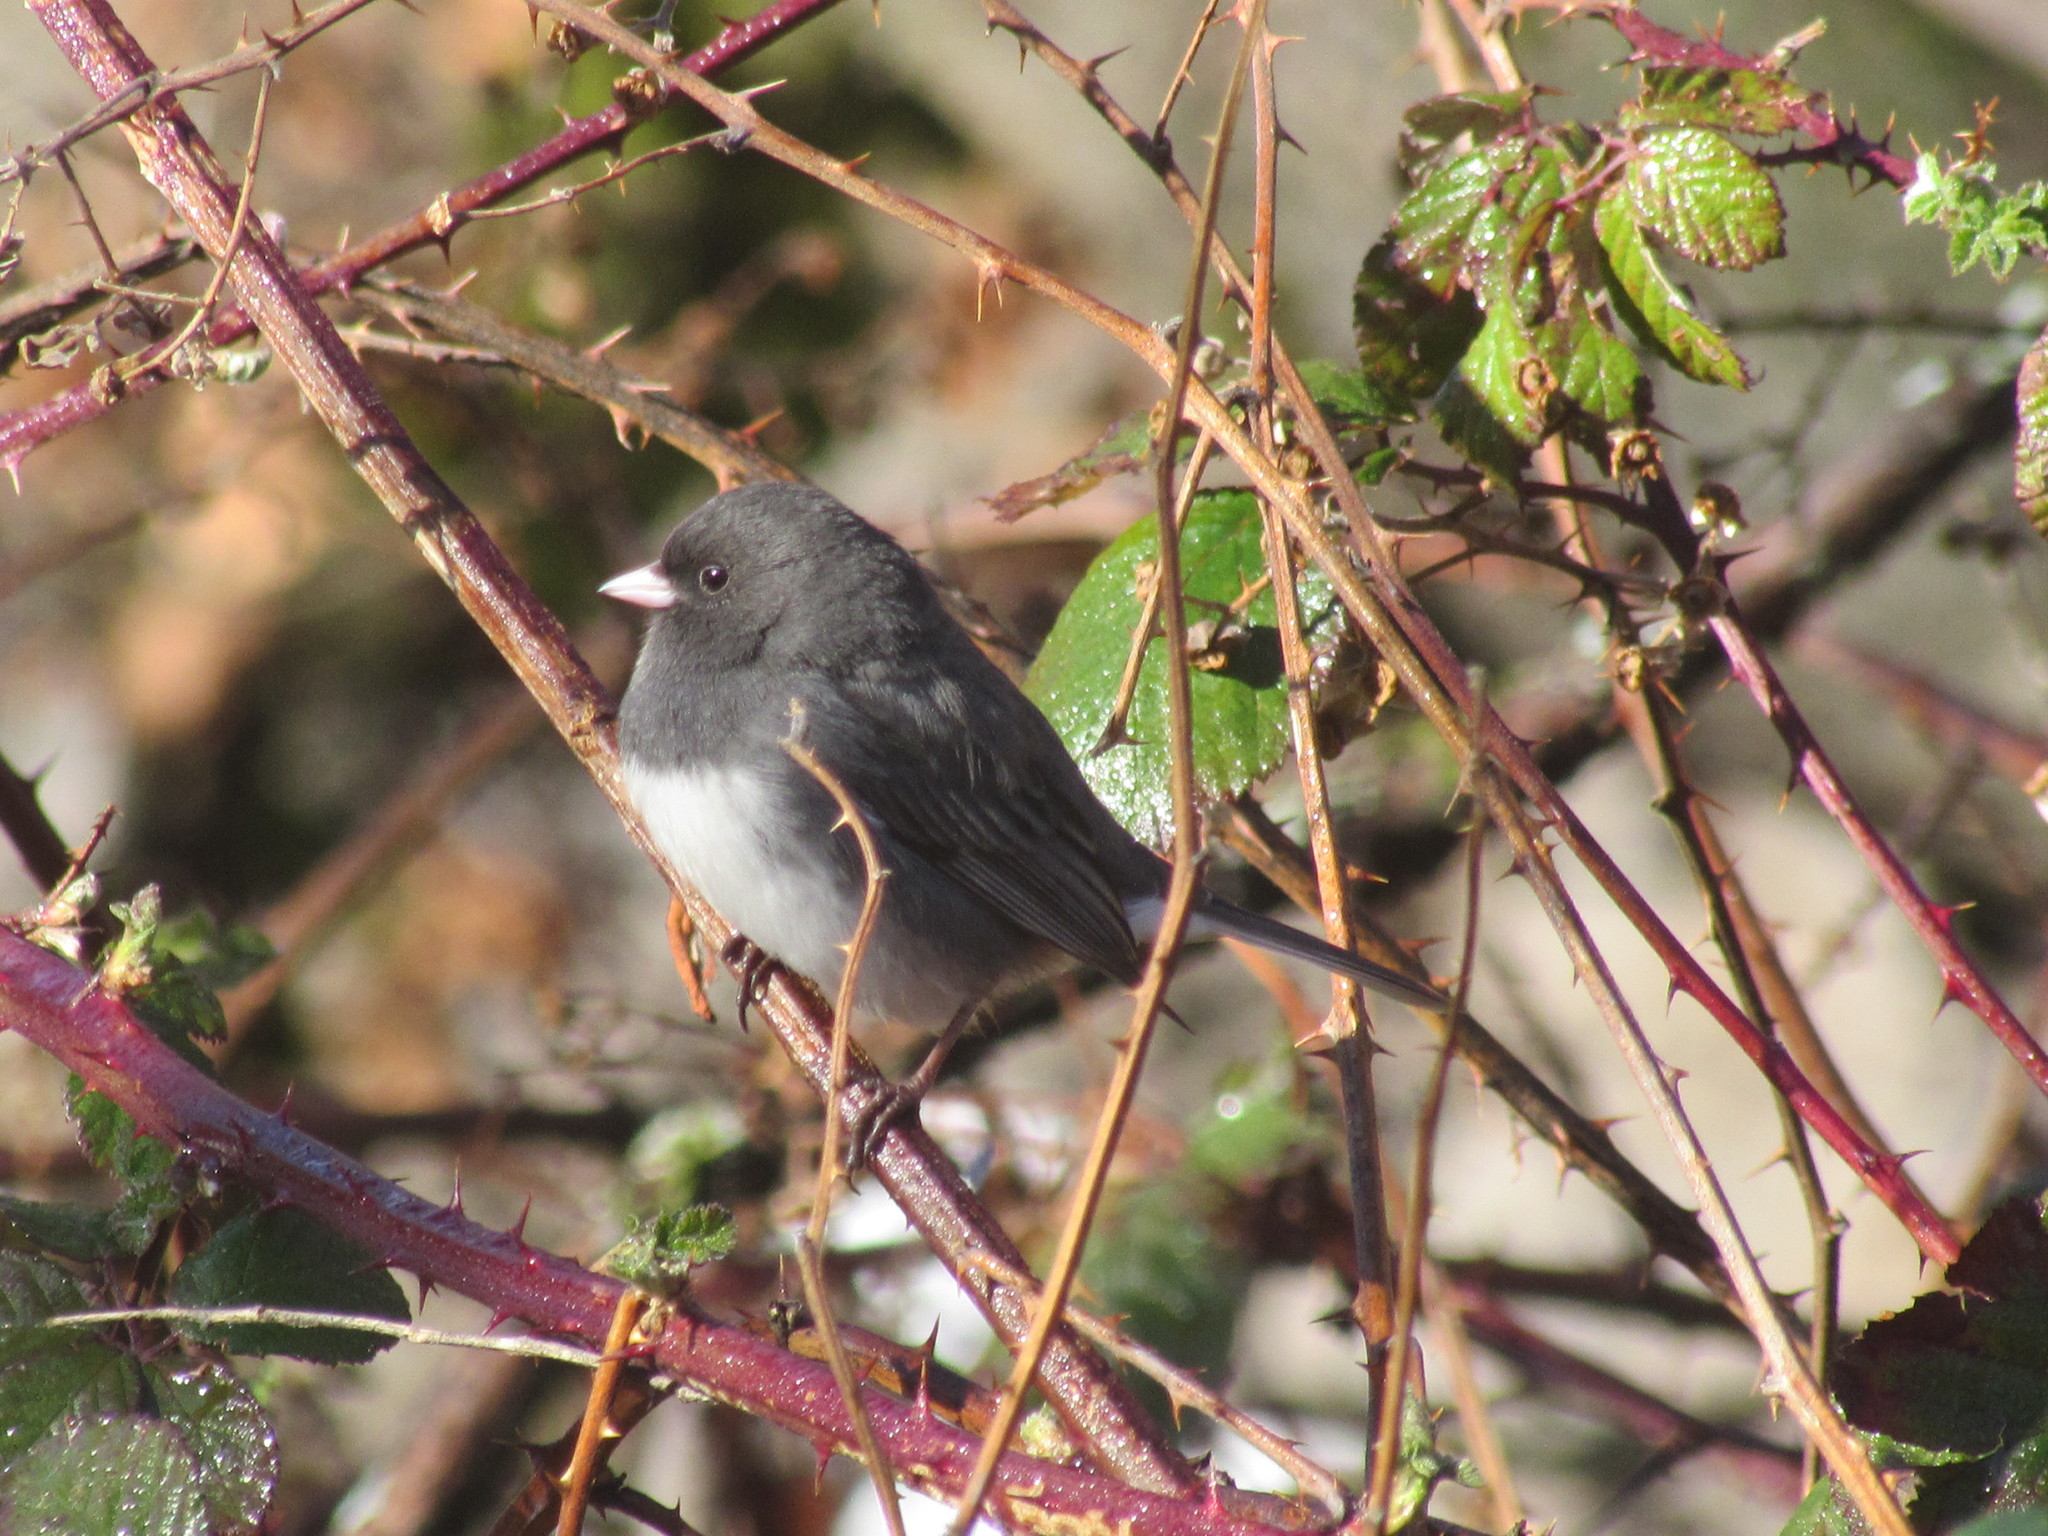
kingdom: Animalia
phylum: Chordata
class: Aves
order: Passeriformes
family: Passerellidae
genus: Junco
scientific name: Junco hyemalis
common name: Dark-eyed junco
